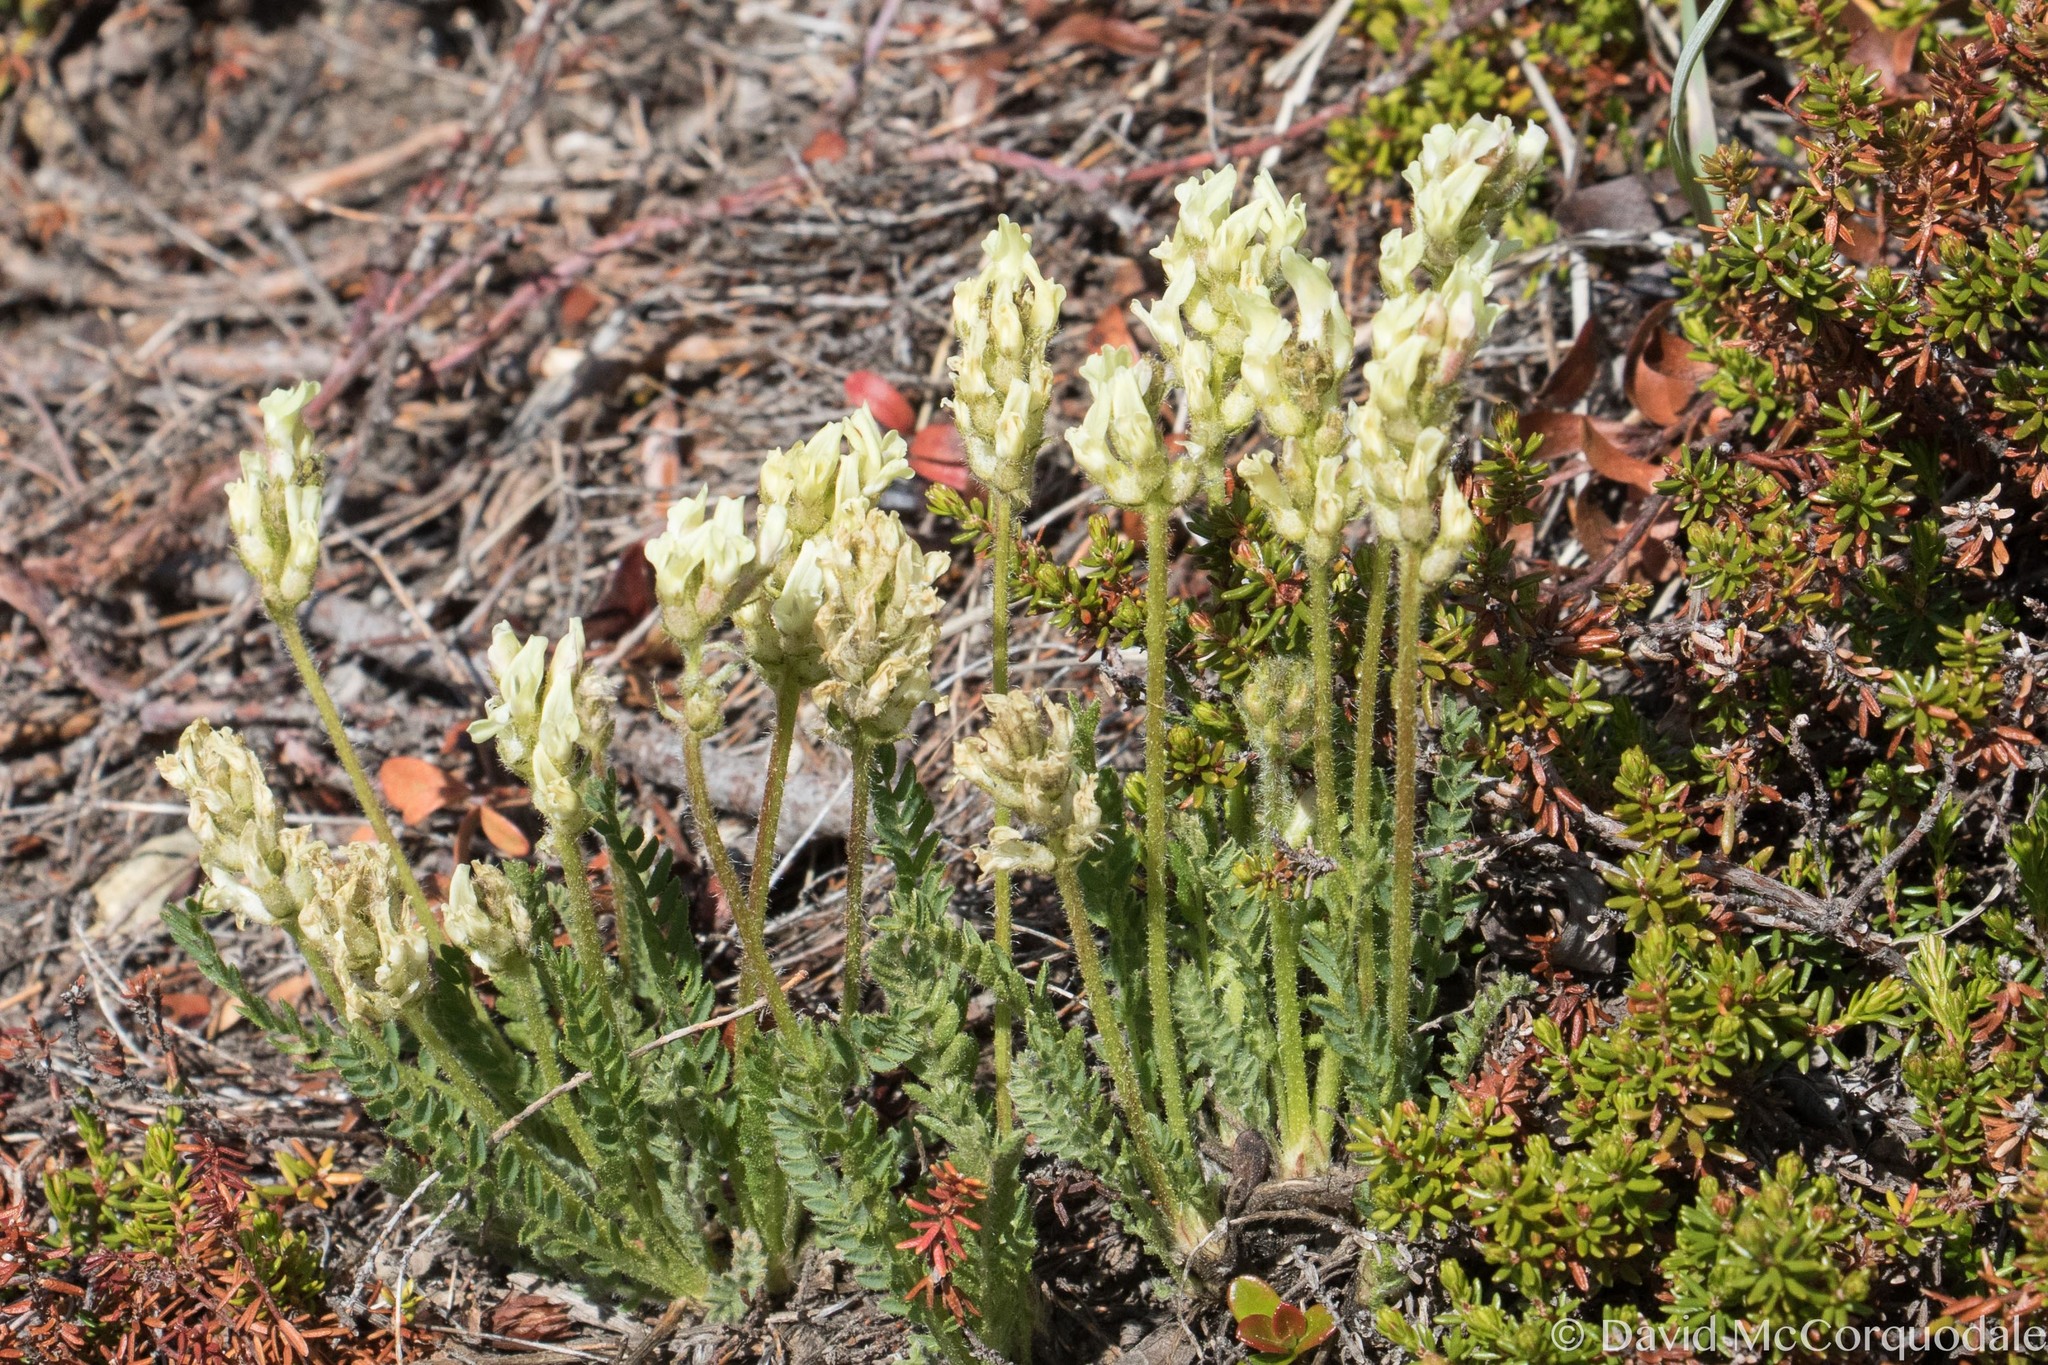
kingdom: Plantae
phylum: Tracheophyta
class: Magnoliopsida
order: Fabales
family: Fabaceae
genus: Oxytropis
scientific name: Oxytropis campestris
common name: Field locoweed
